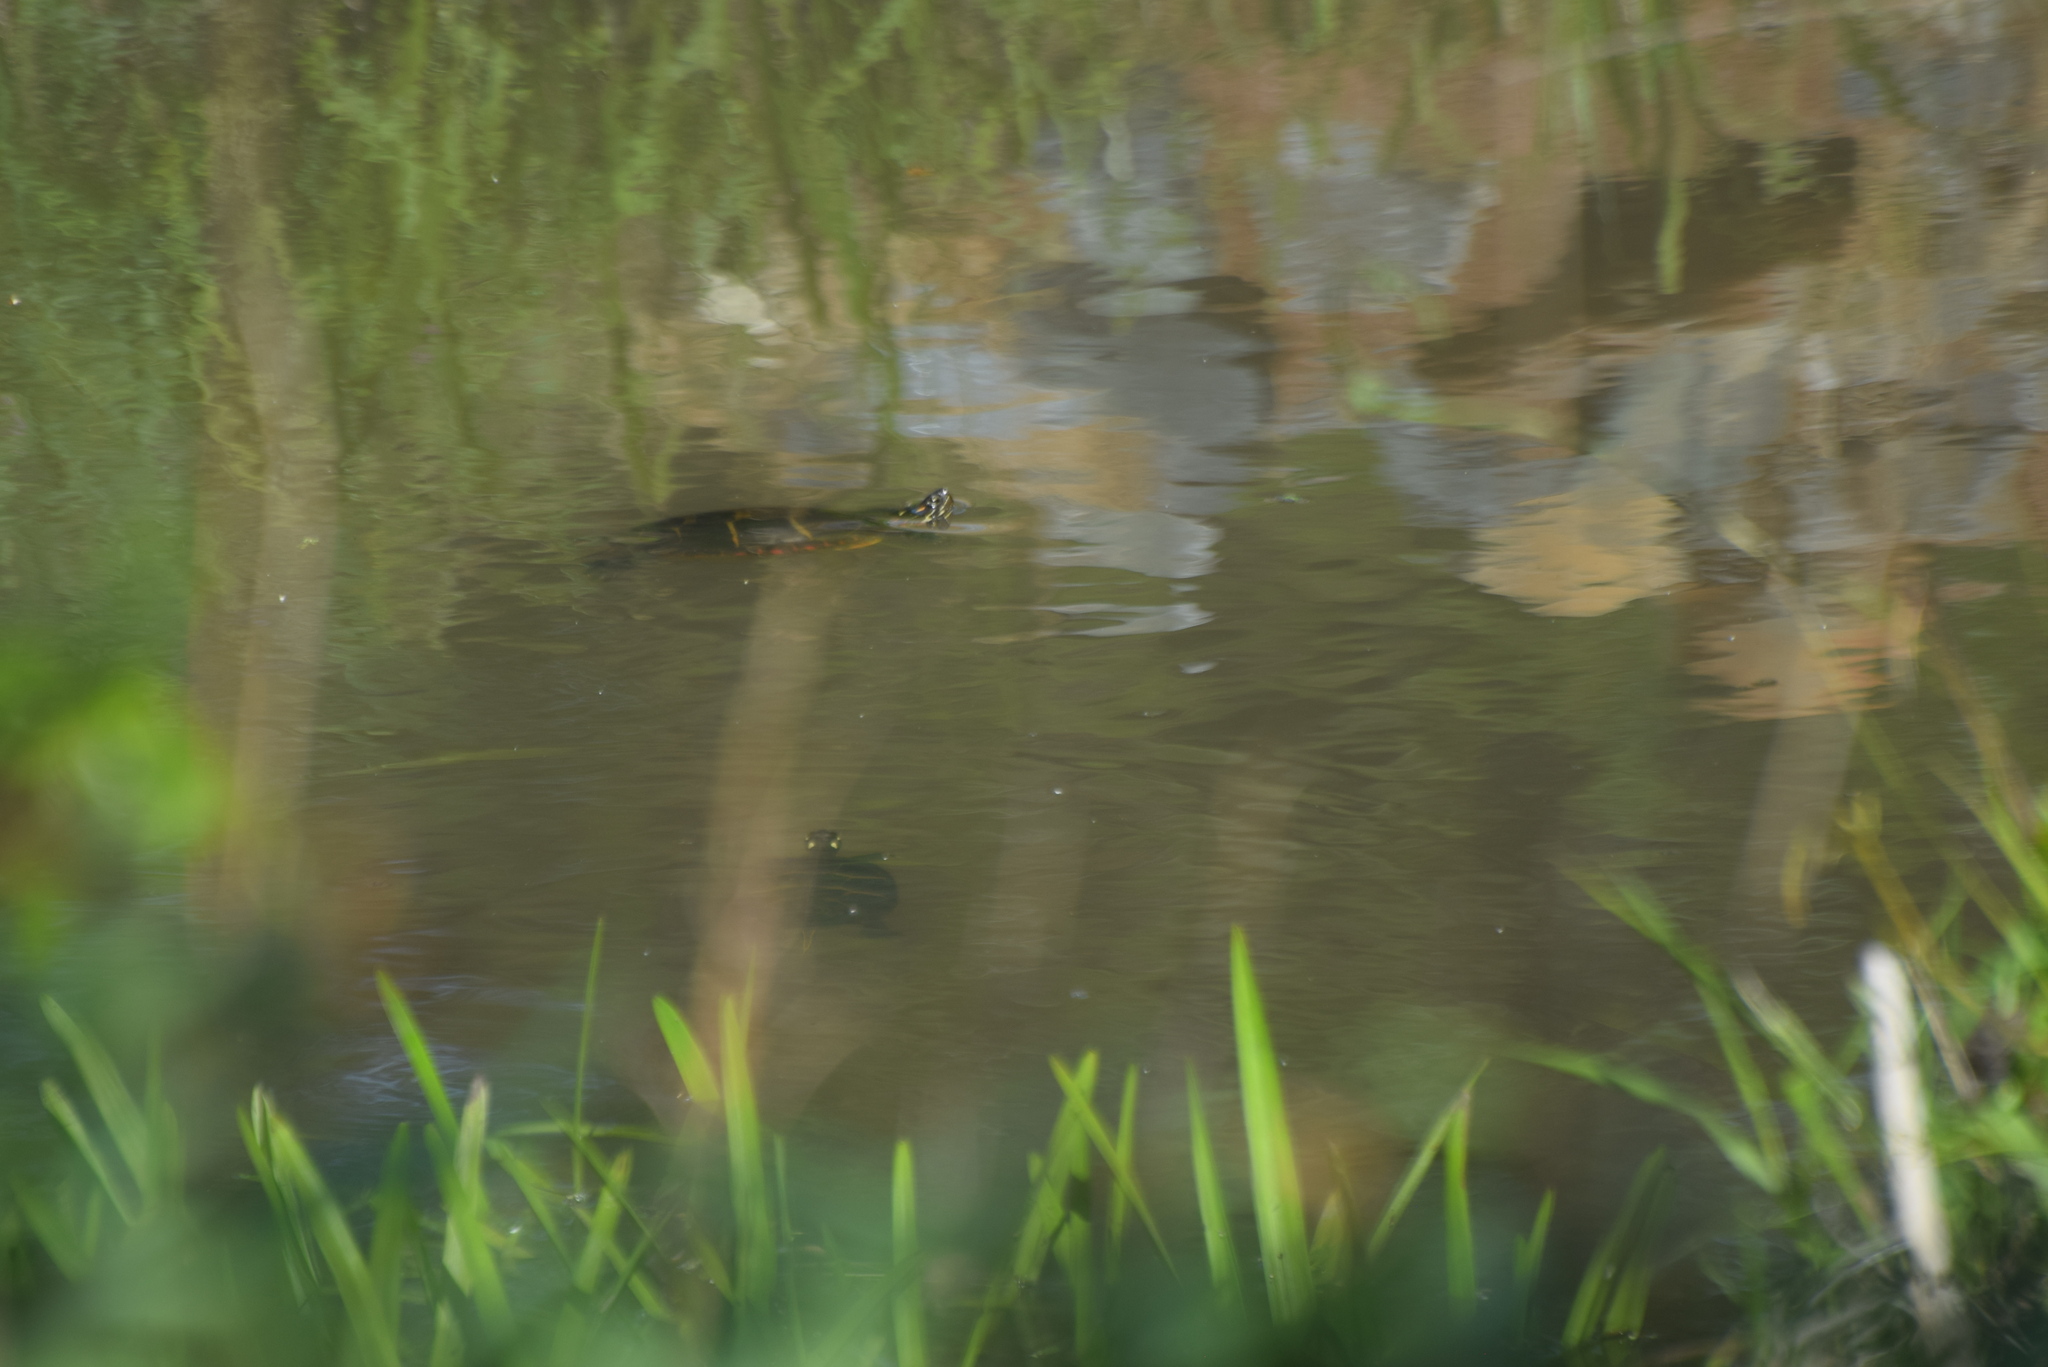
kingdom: Animalia
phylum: Chordata
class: Testudines
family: Emydidae
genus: Chrysemys
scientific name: Chrysemys picta
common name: Painted turtle
